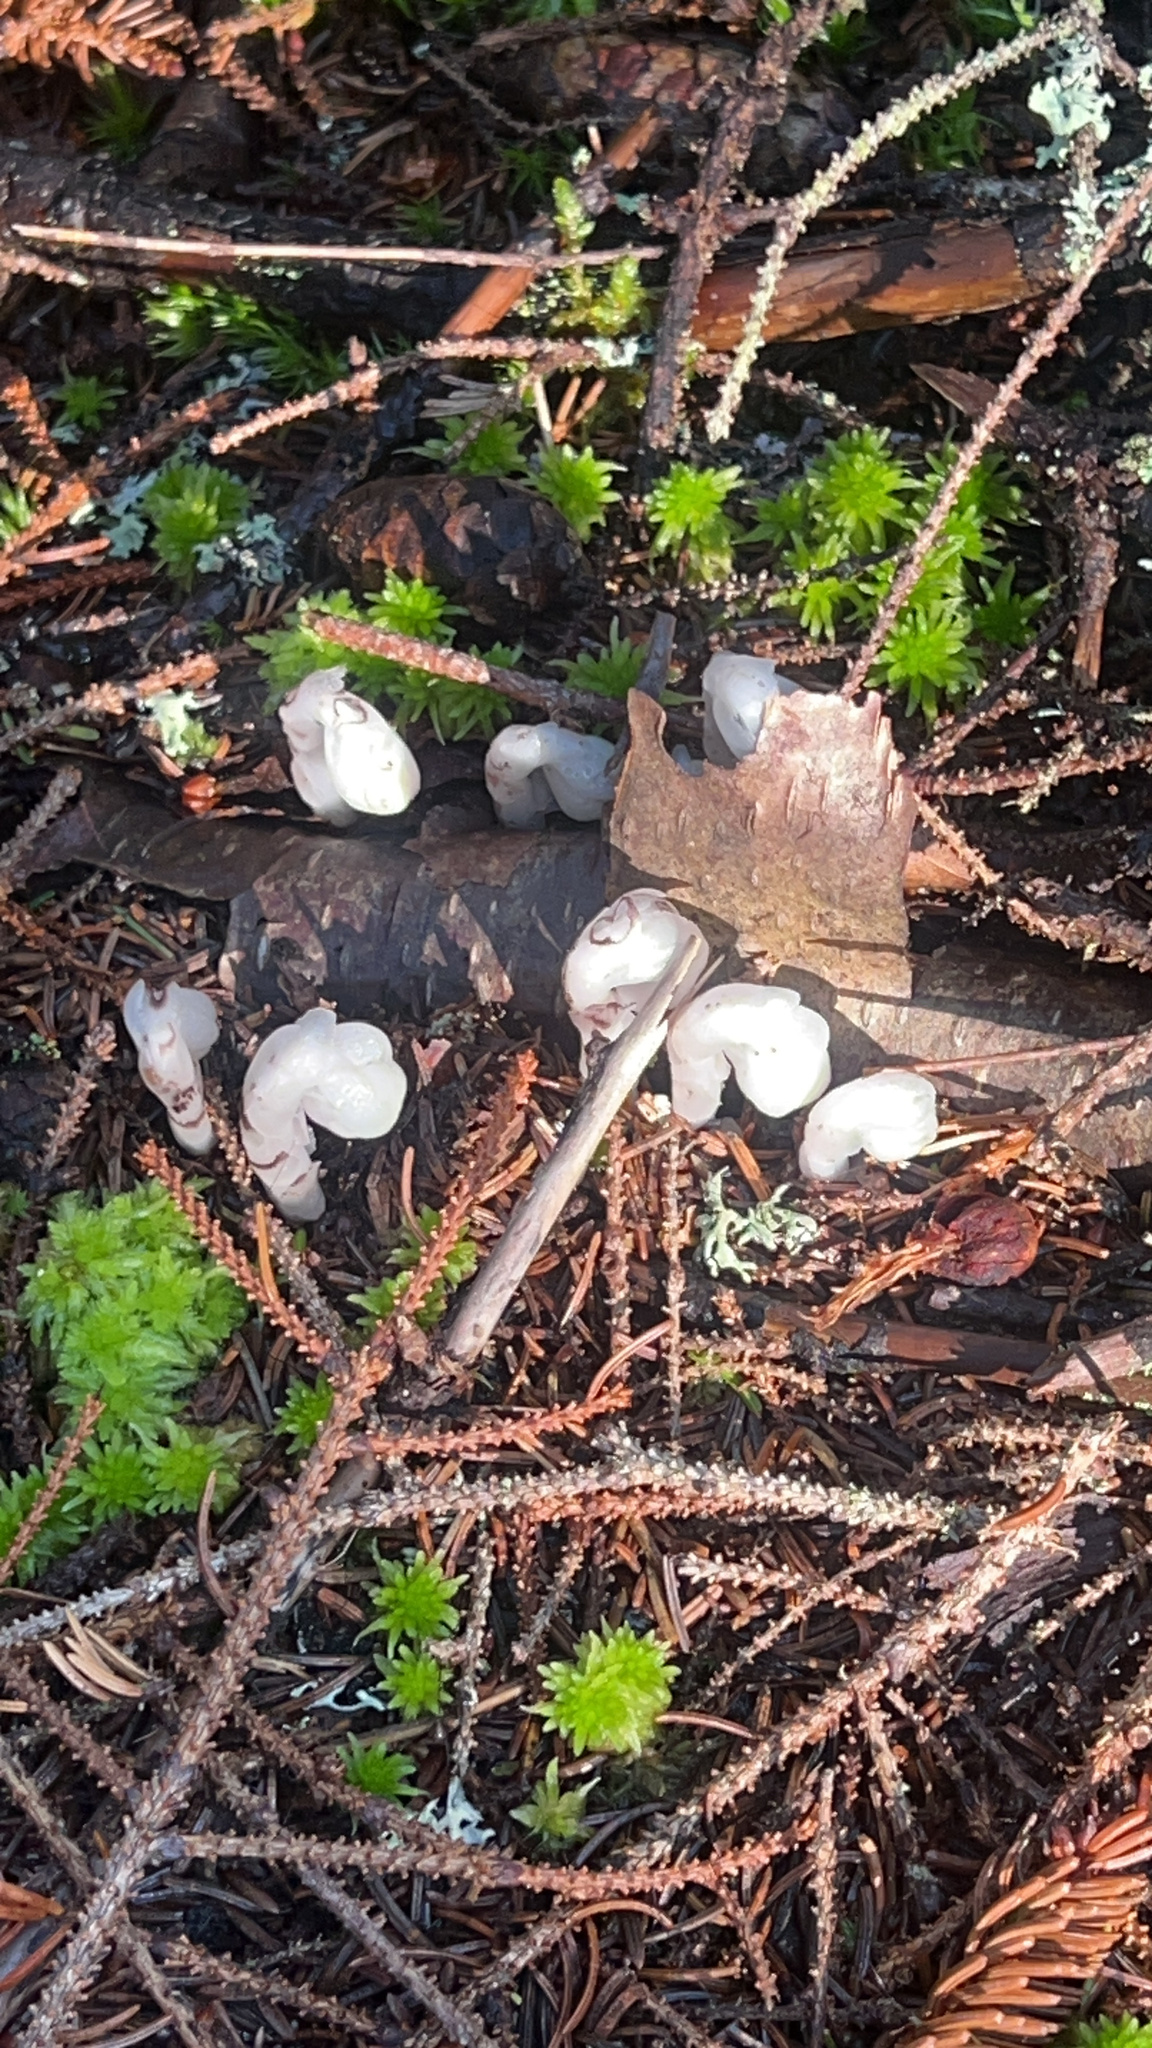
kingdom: Plantae
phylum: Tracheophyta
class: Magnoliopsida
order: Ericales
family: Ericaceae
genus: Monotropa
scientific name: Monotropa uniflora
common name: Convulsion root
